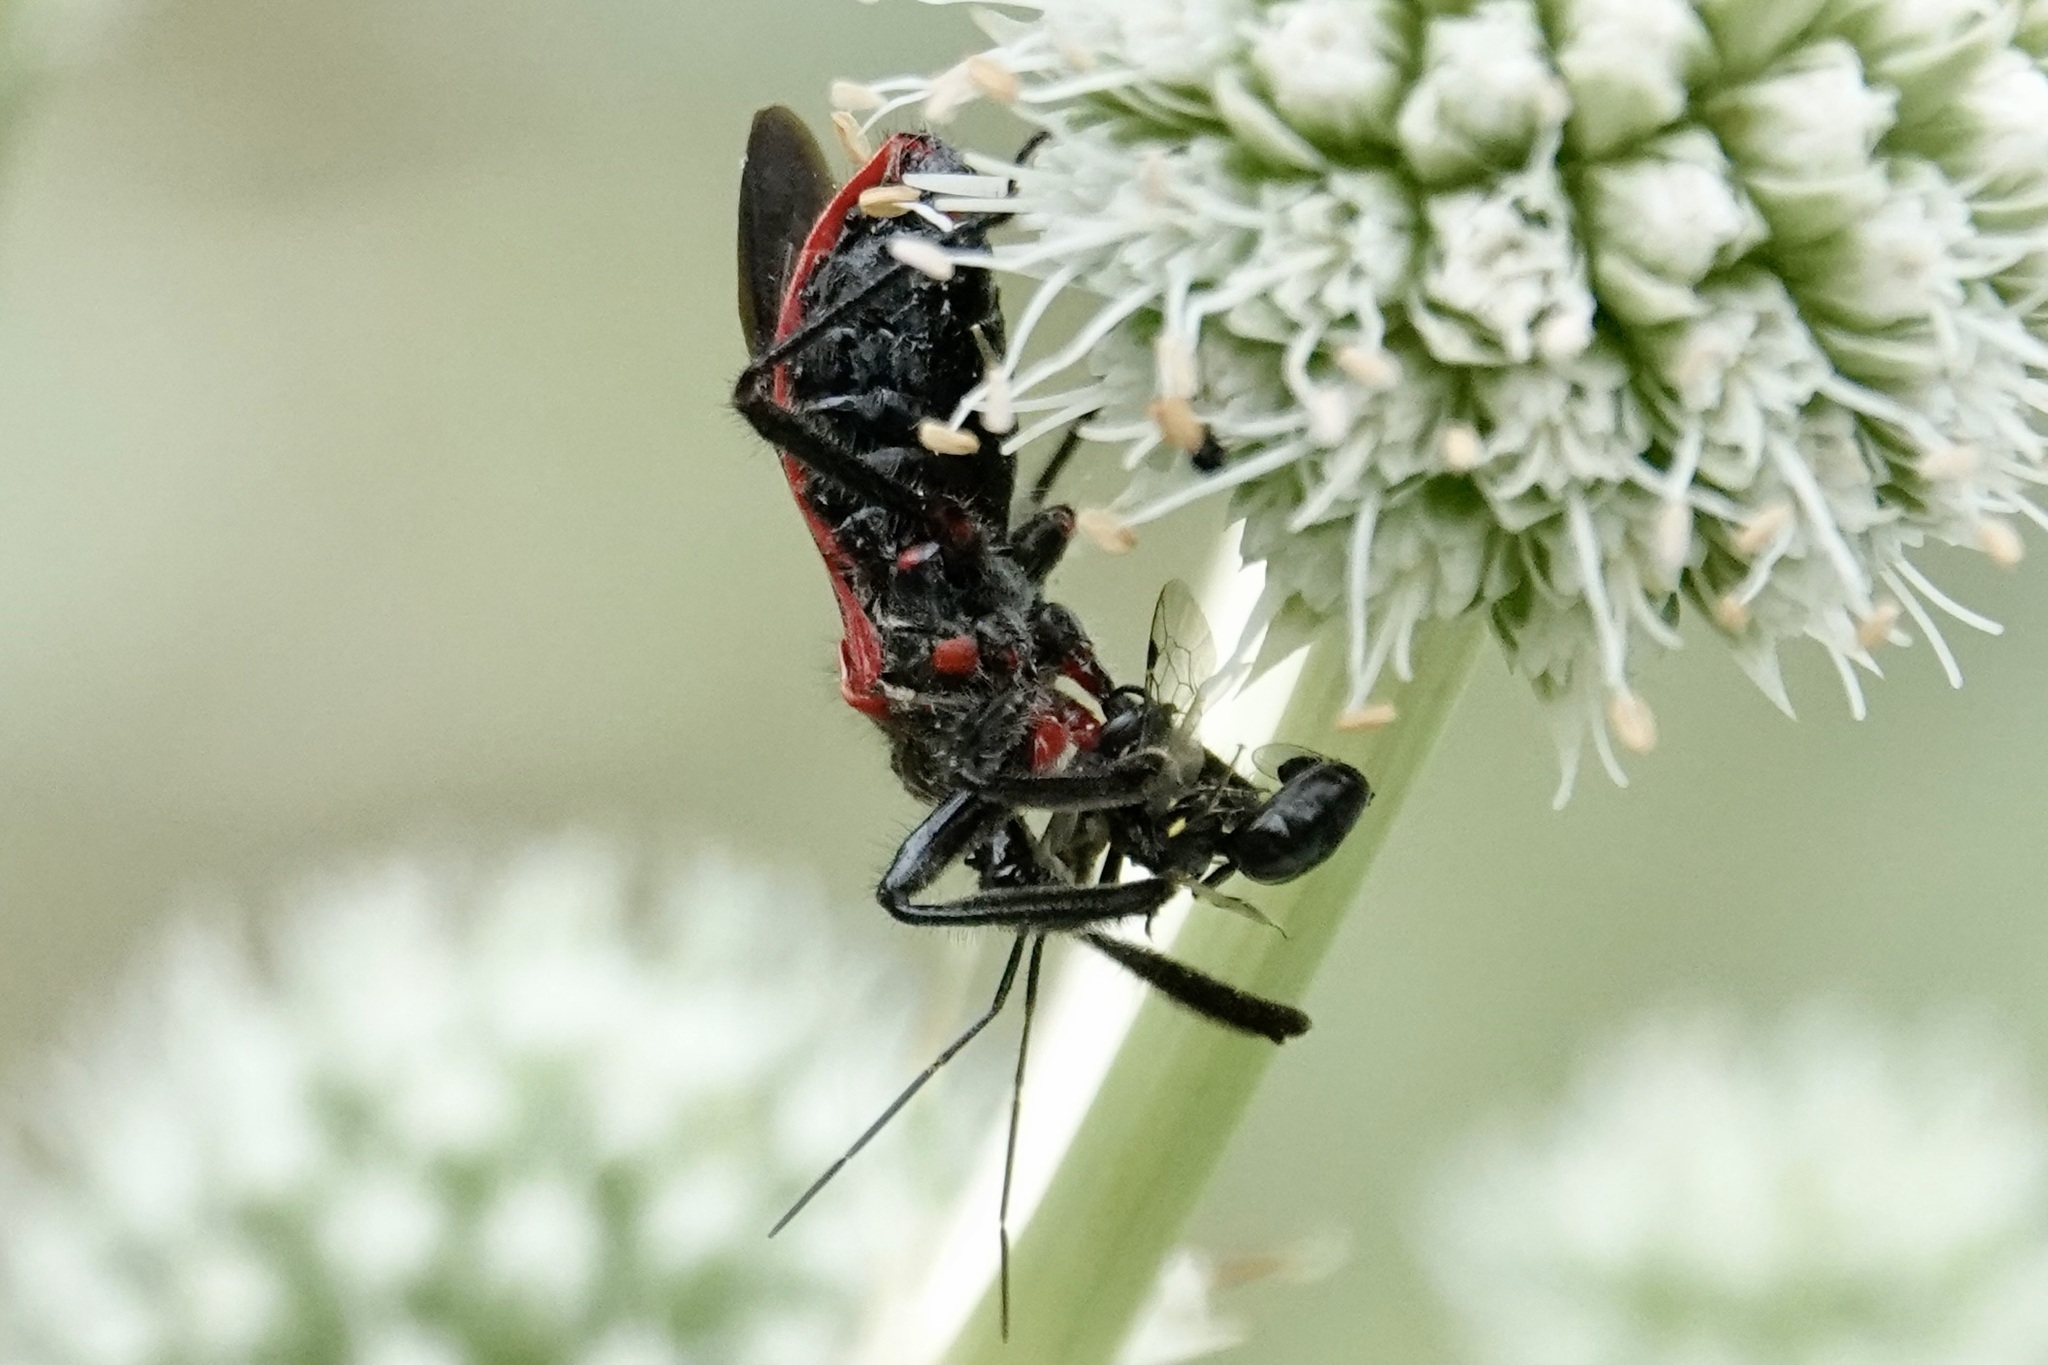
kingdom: Animalia
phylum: Arthropoda
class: Insecta
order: Hemiptera
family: Reduviidae
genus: Apiomerus
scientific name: Apiomerus crassipes
